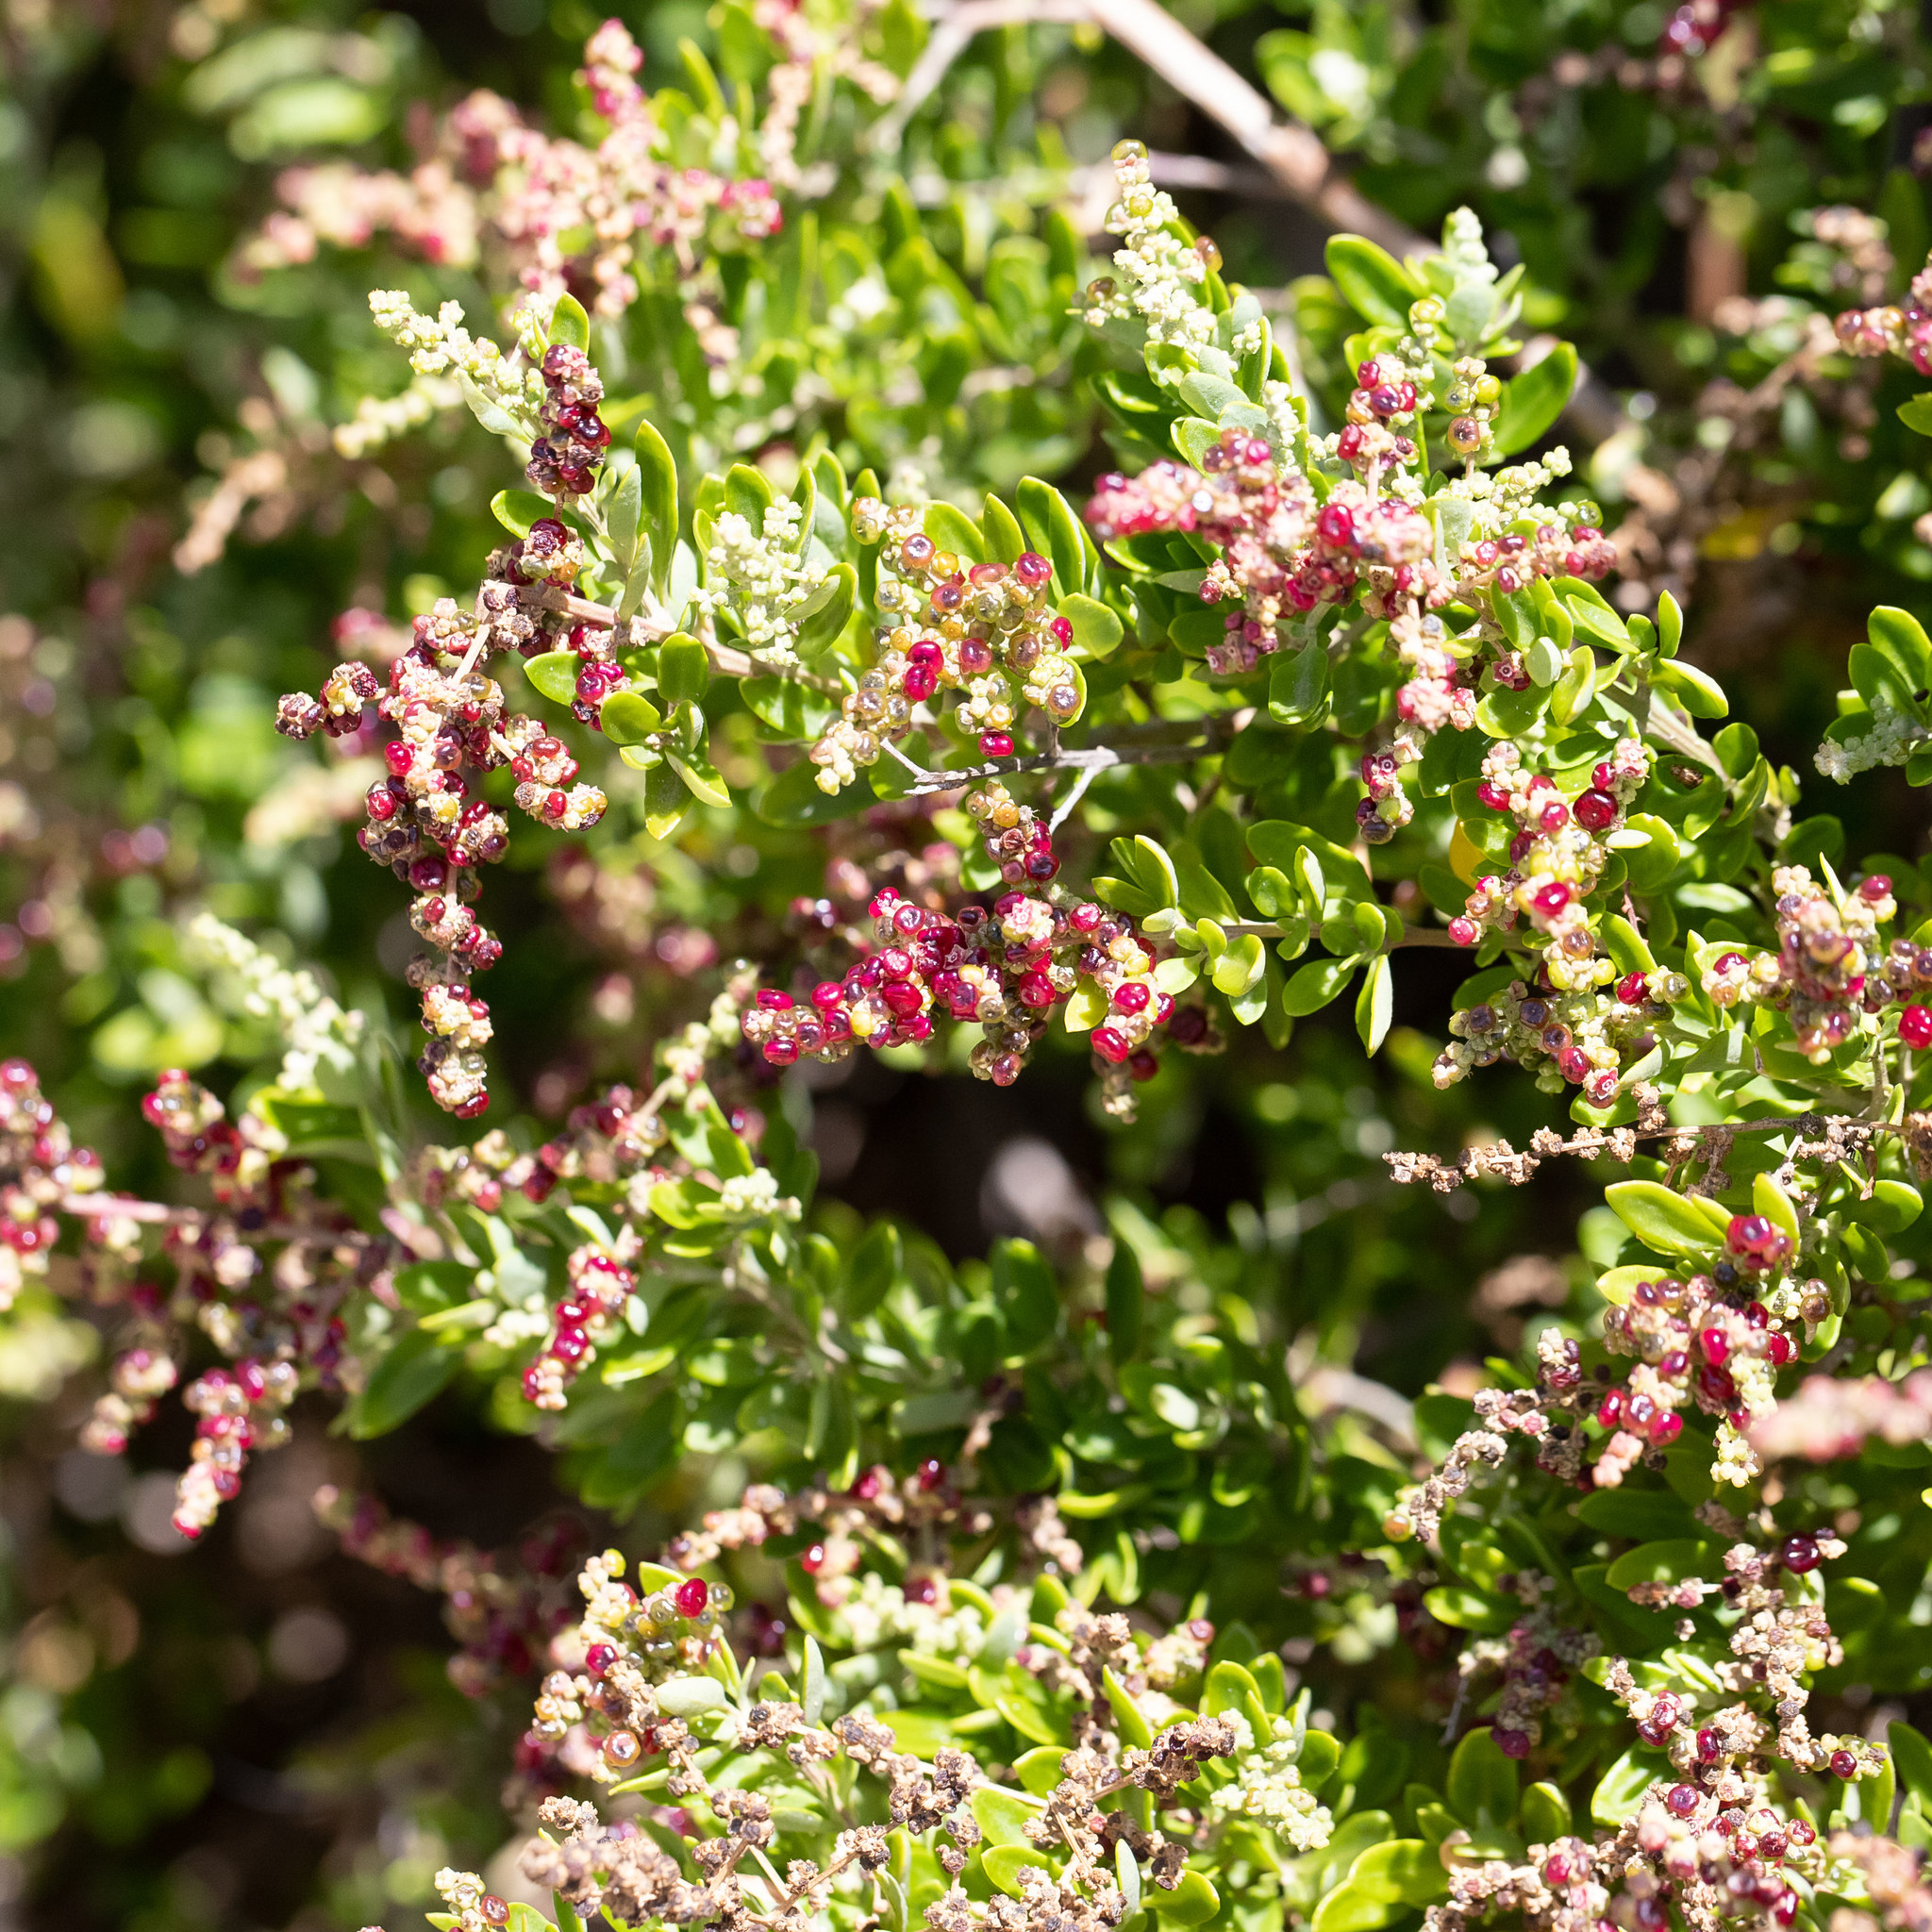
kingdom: Plantae
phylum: Tracheophyta
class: Magnoliopsida
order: Caryophyllales
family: Amaranthaceae
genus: Chenopodium
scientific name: Chenopodium candolleanum
